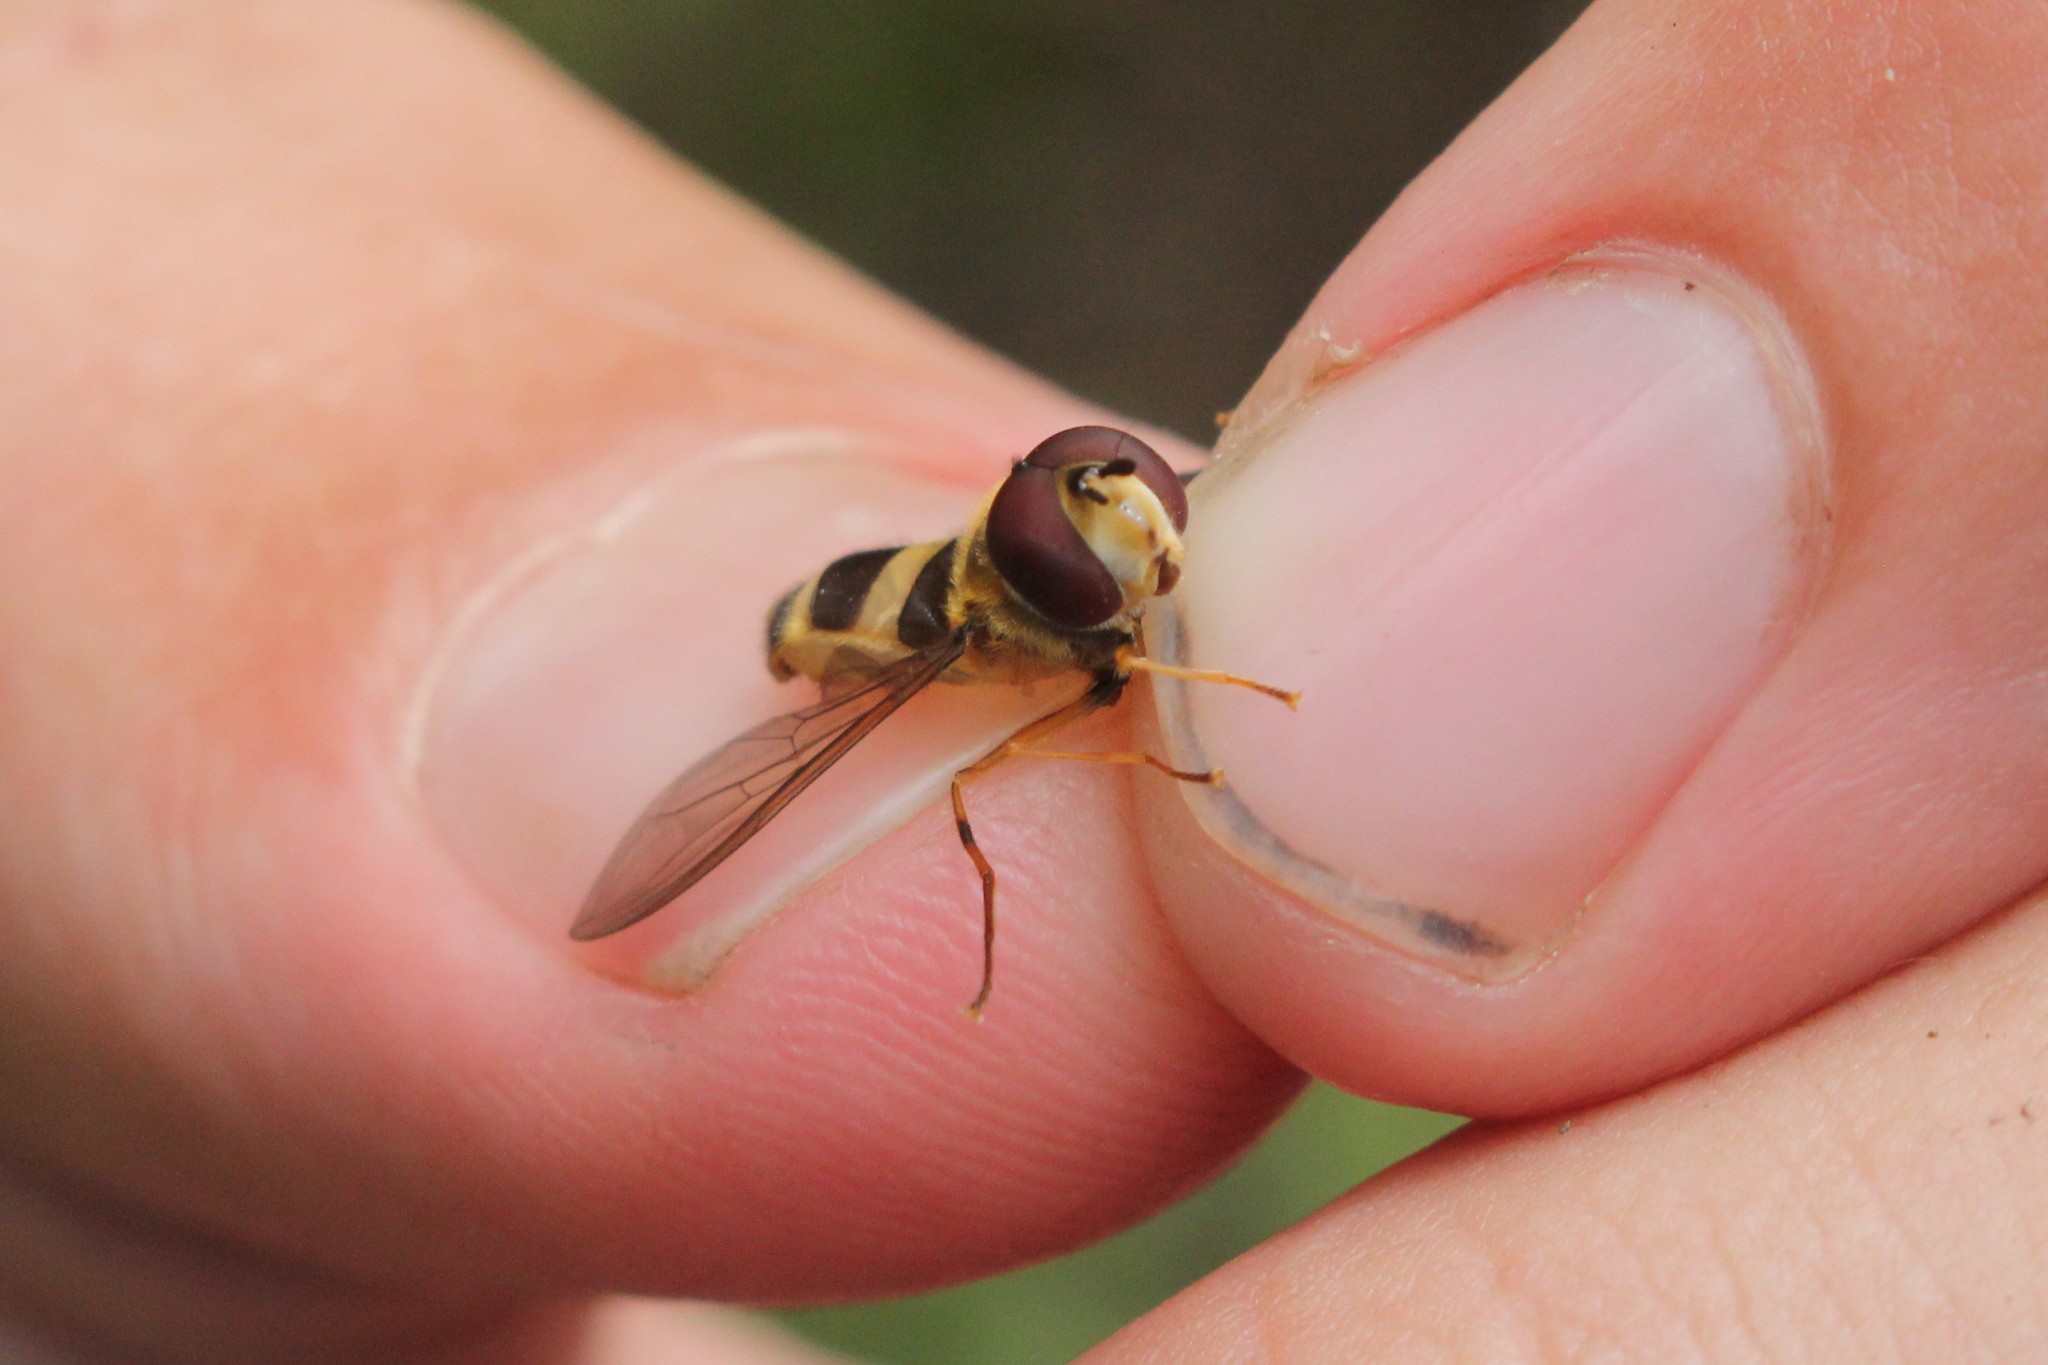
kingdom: Animalia
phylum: Arthropoda
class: Insecta
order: Diptera
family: Syrphidae
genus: Epistrophe
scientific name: Epistrophe grossulariae
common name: Black-horned smoothtail
